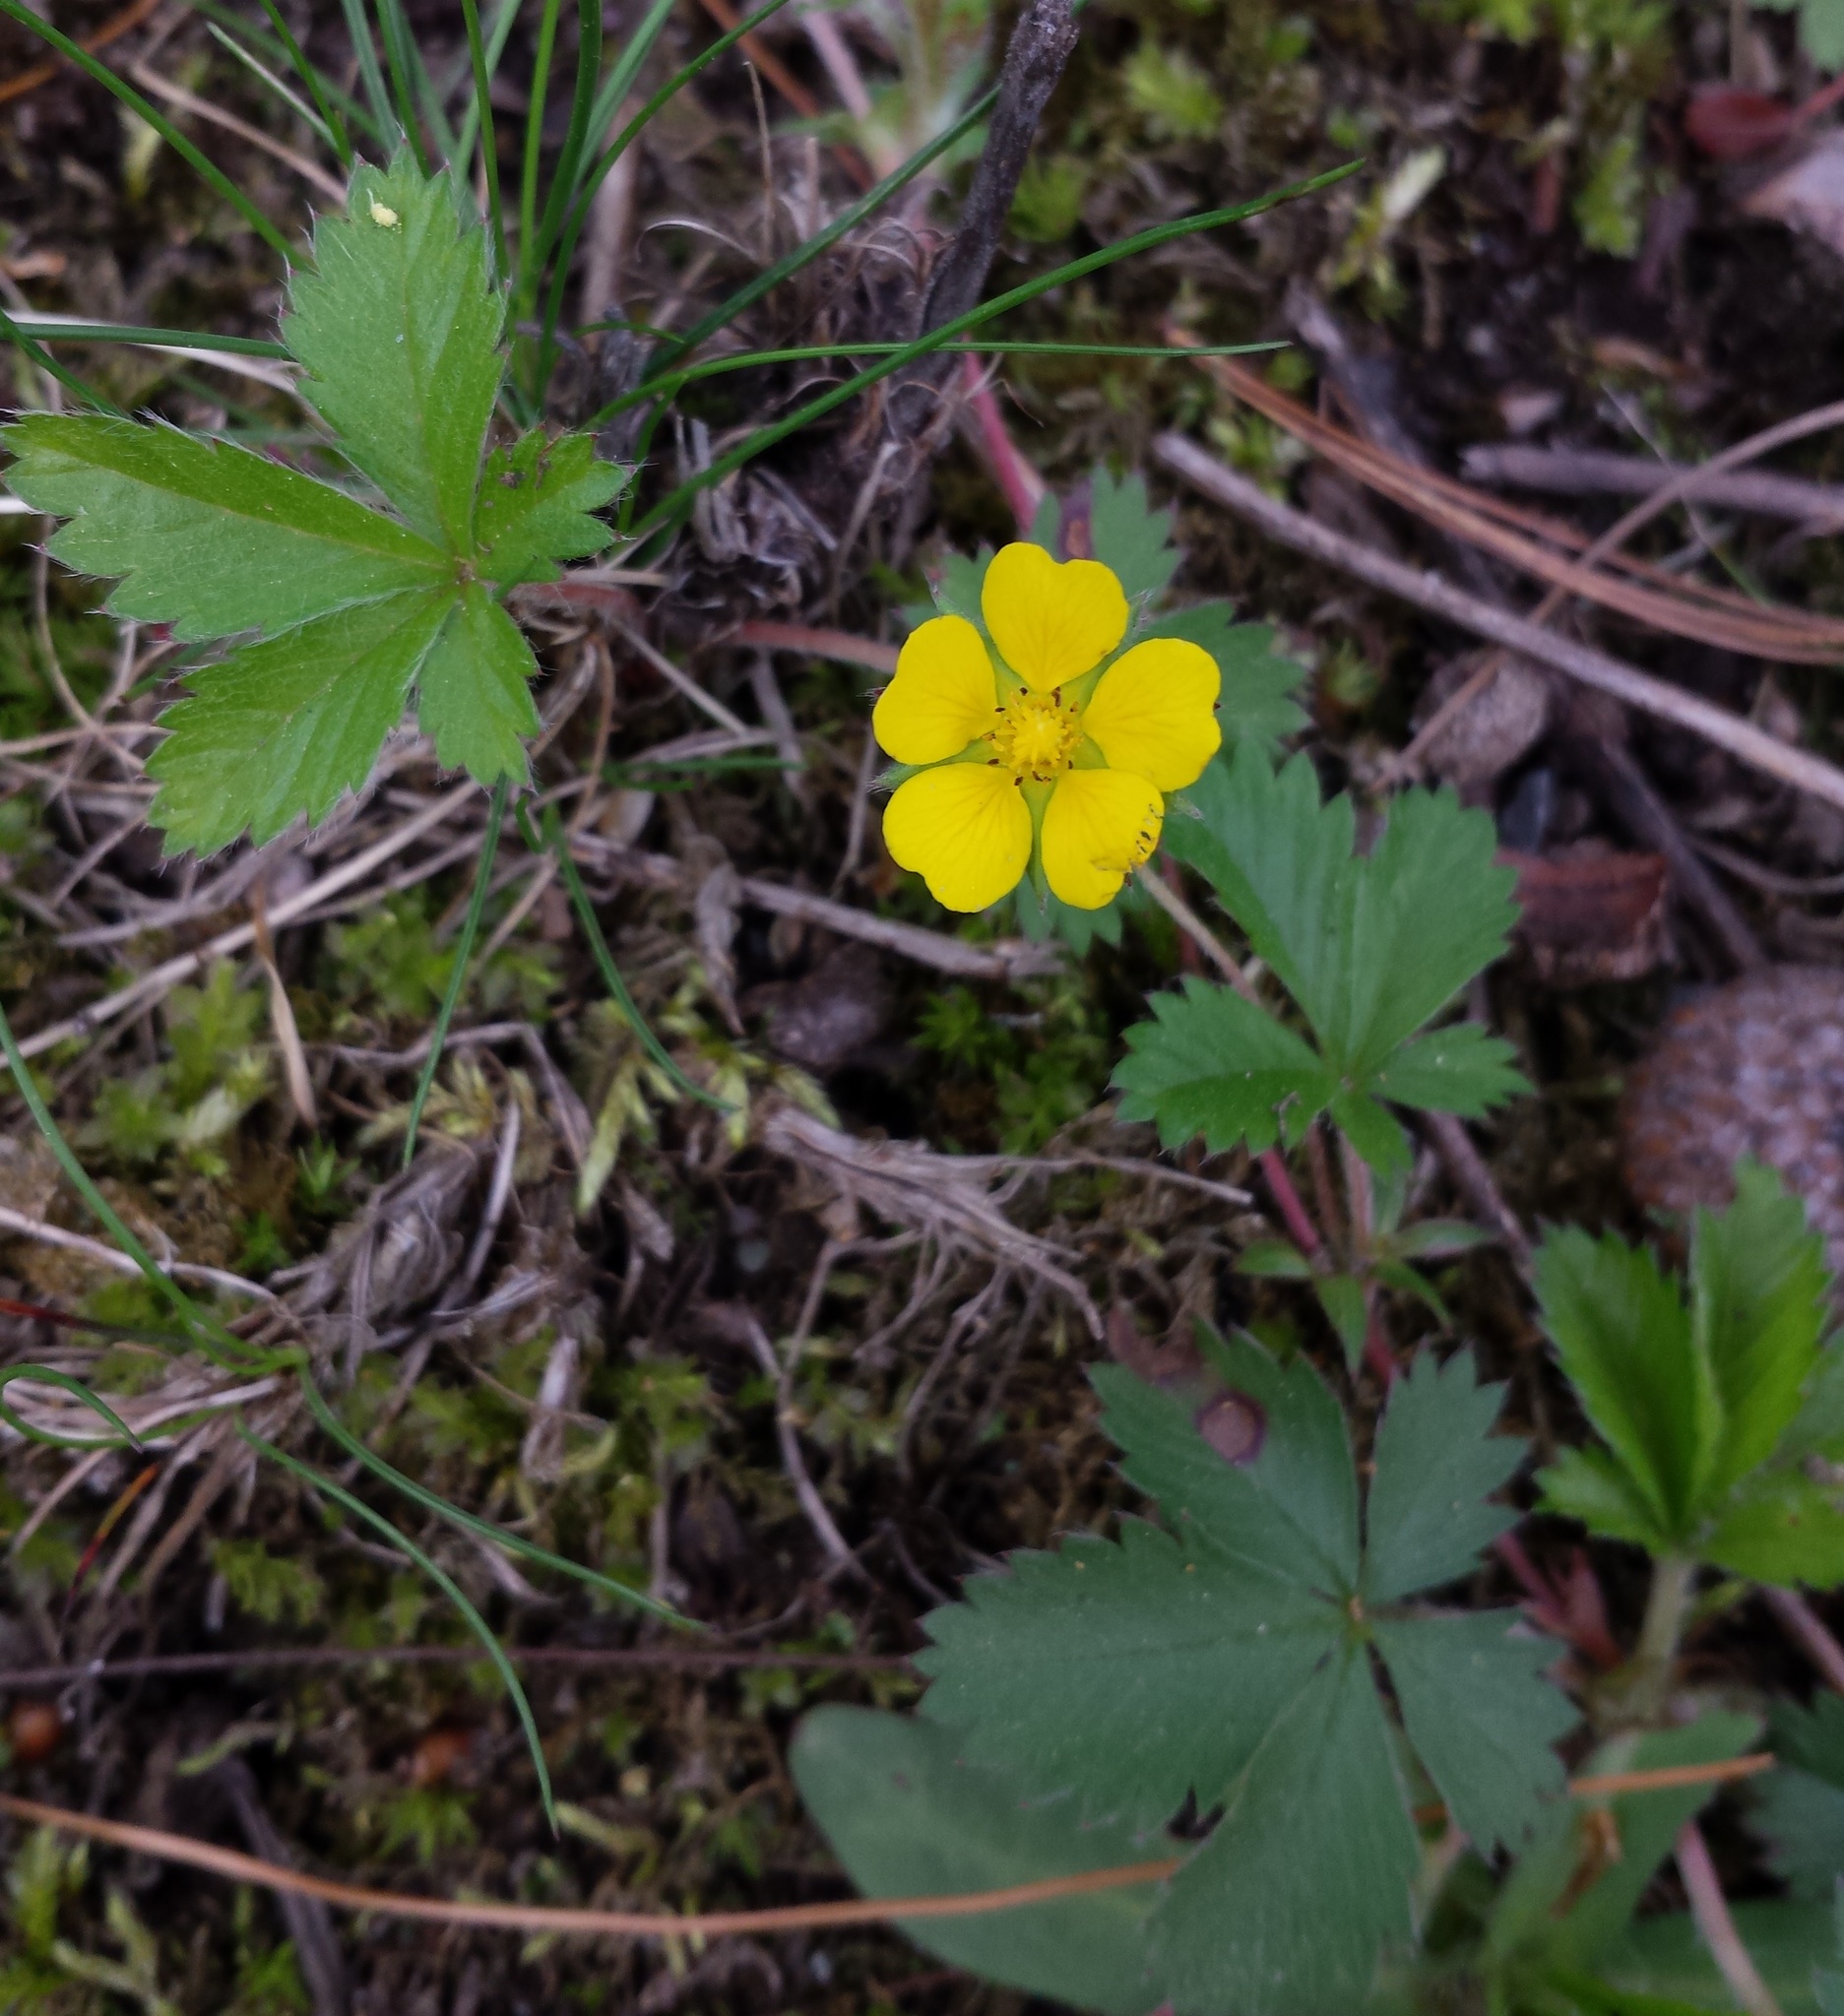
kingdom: Plantae
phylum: Tracheophyta
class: Magnoliopsida
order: Rosales
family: Rosaceae
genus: Potentilla
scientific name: Potentilla canadensis
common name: Canada cinquefoil
